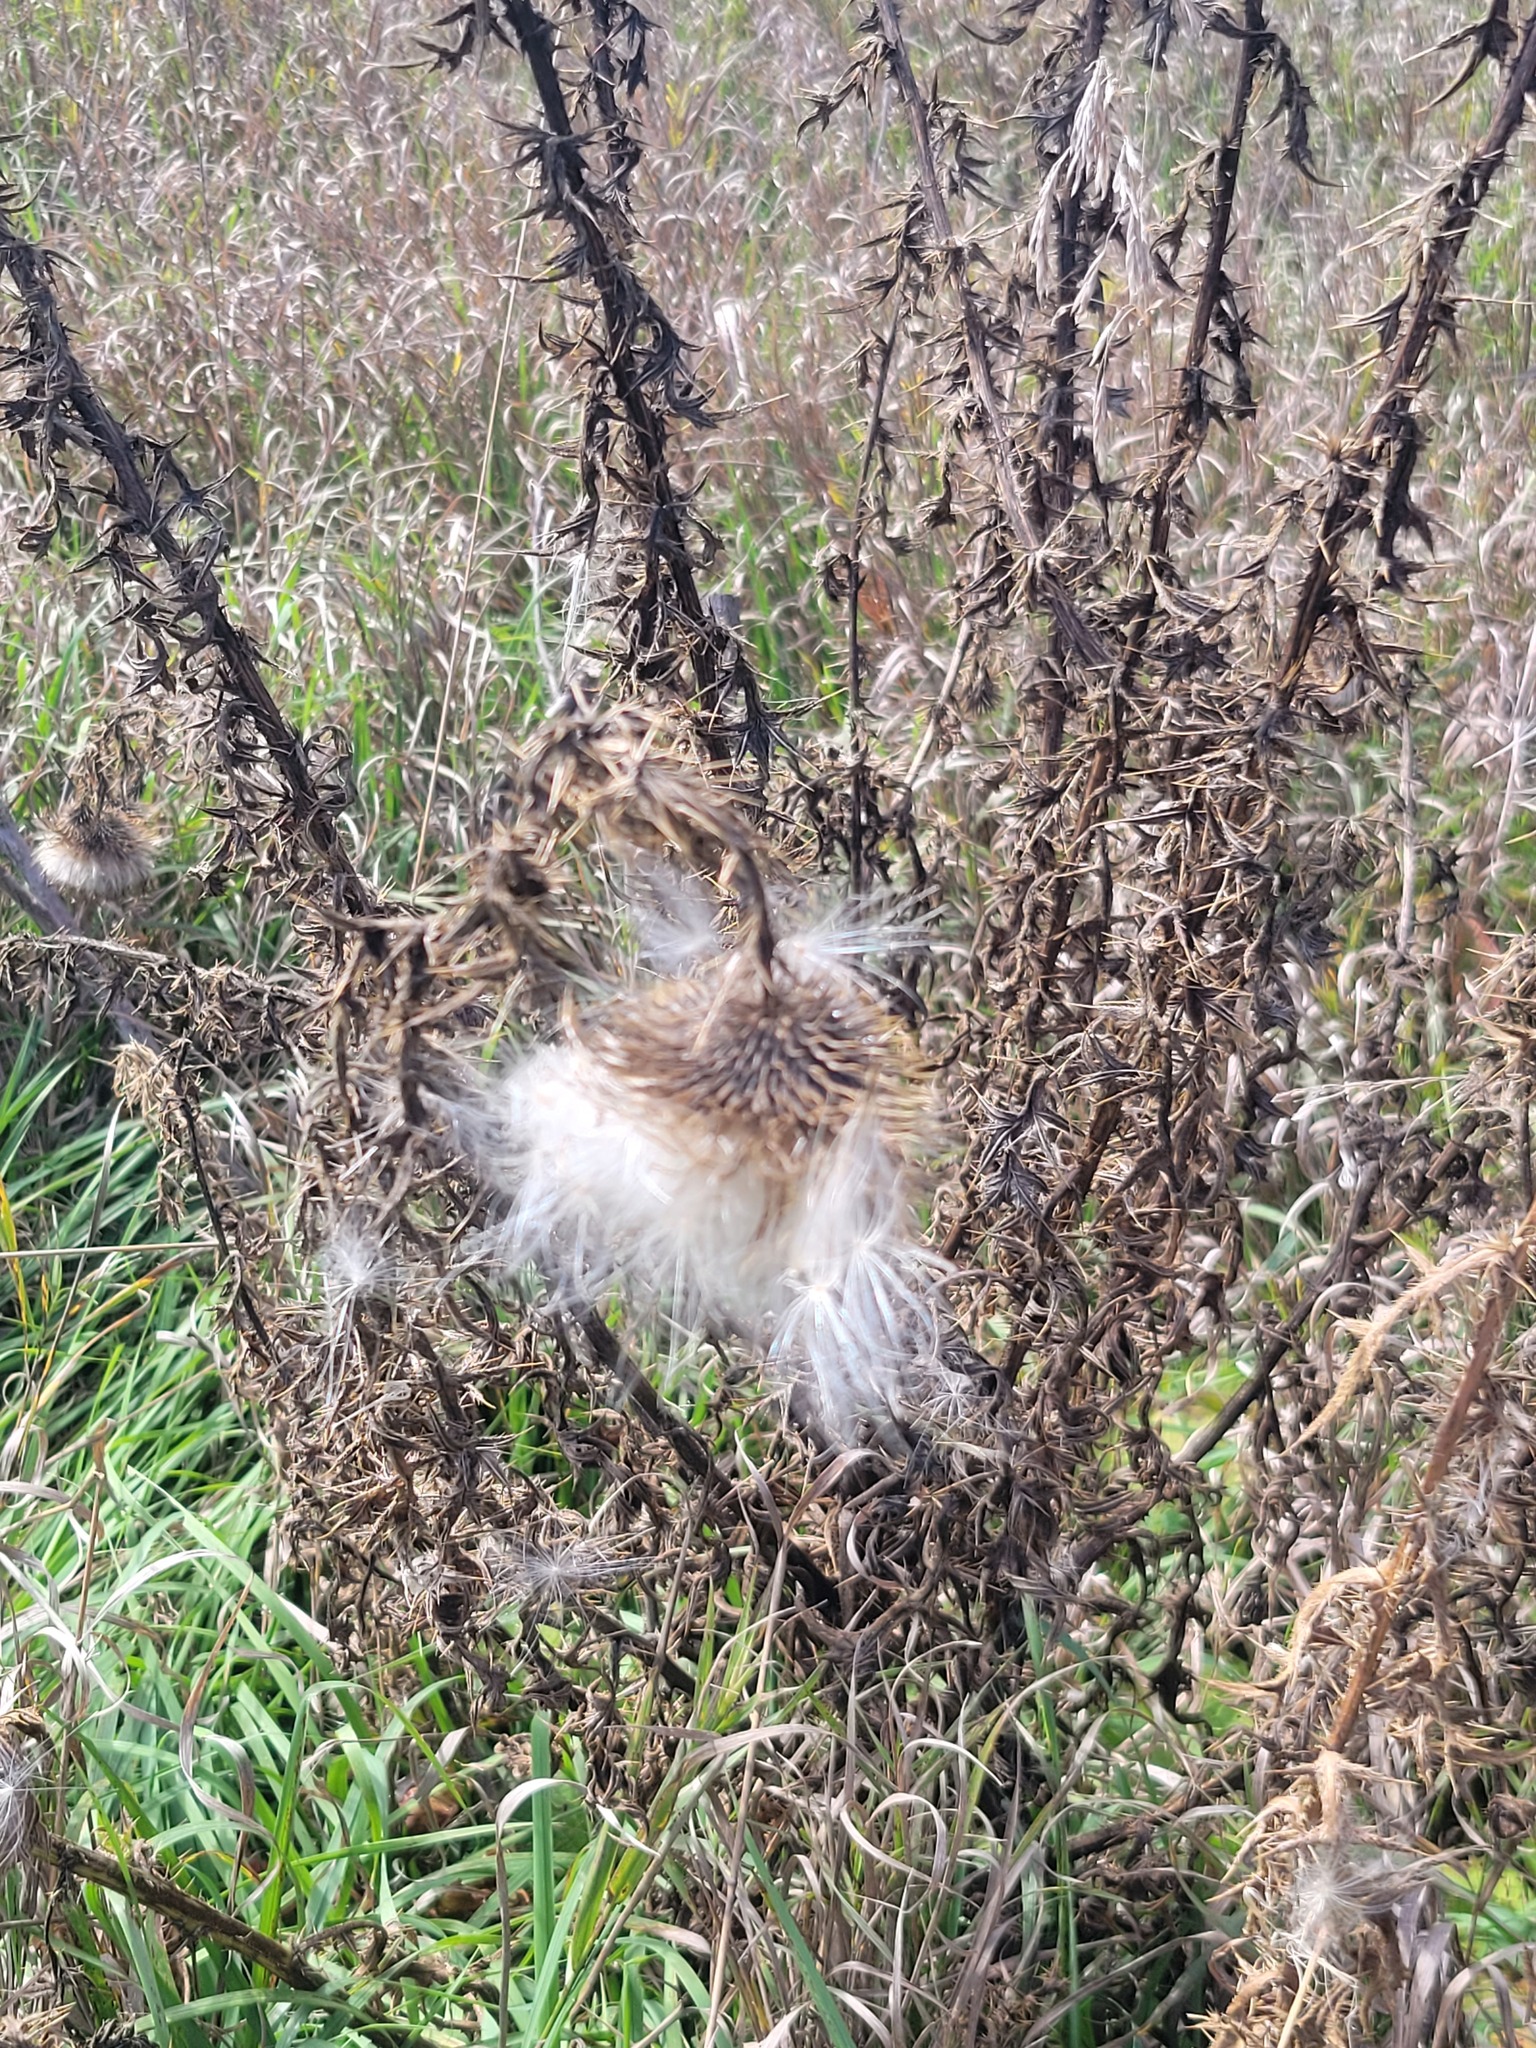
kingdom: Plantae
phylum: Tracheophyta
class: Magnoliopsida
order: Asterales
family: Asteraceae
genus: Cirsium
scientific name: Cirsium vulgare
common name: Bull thistle
